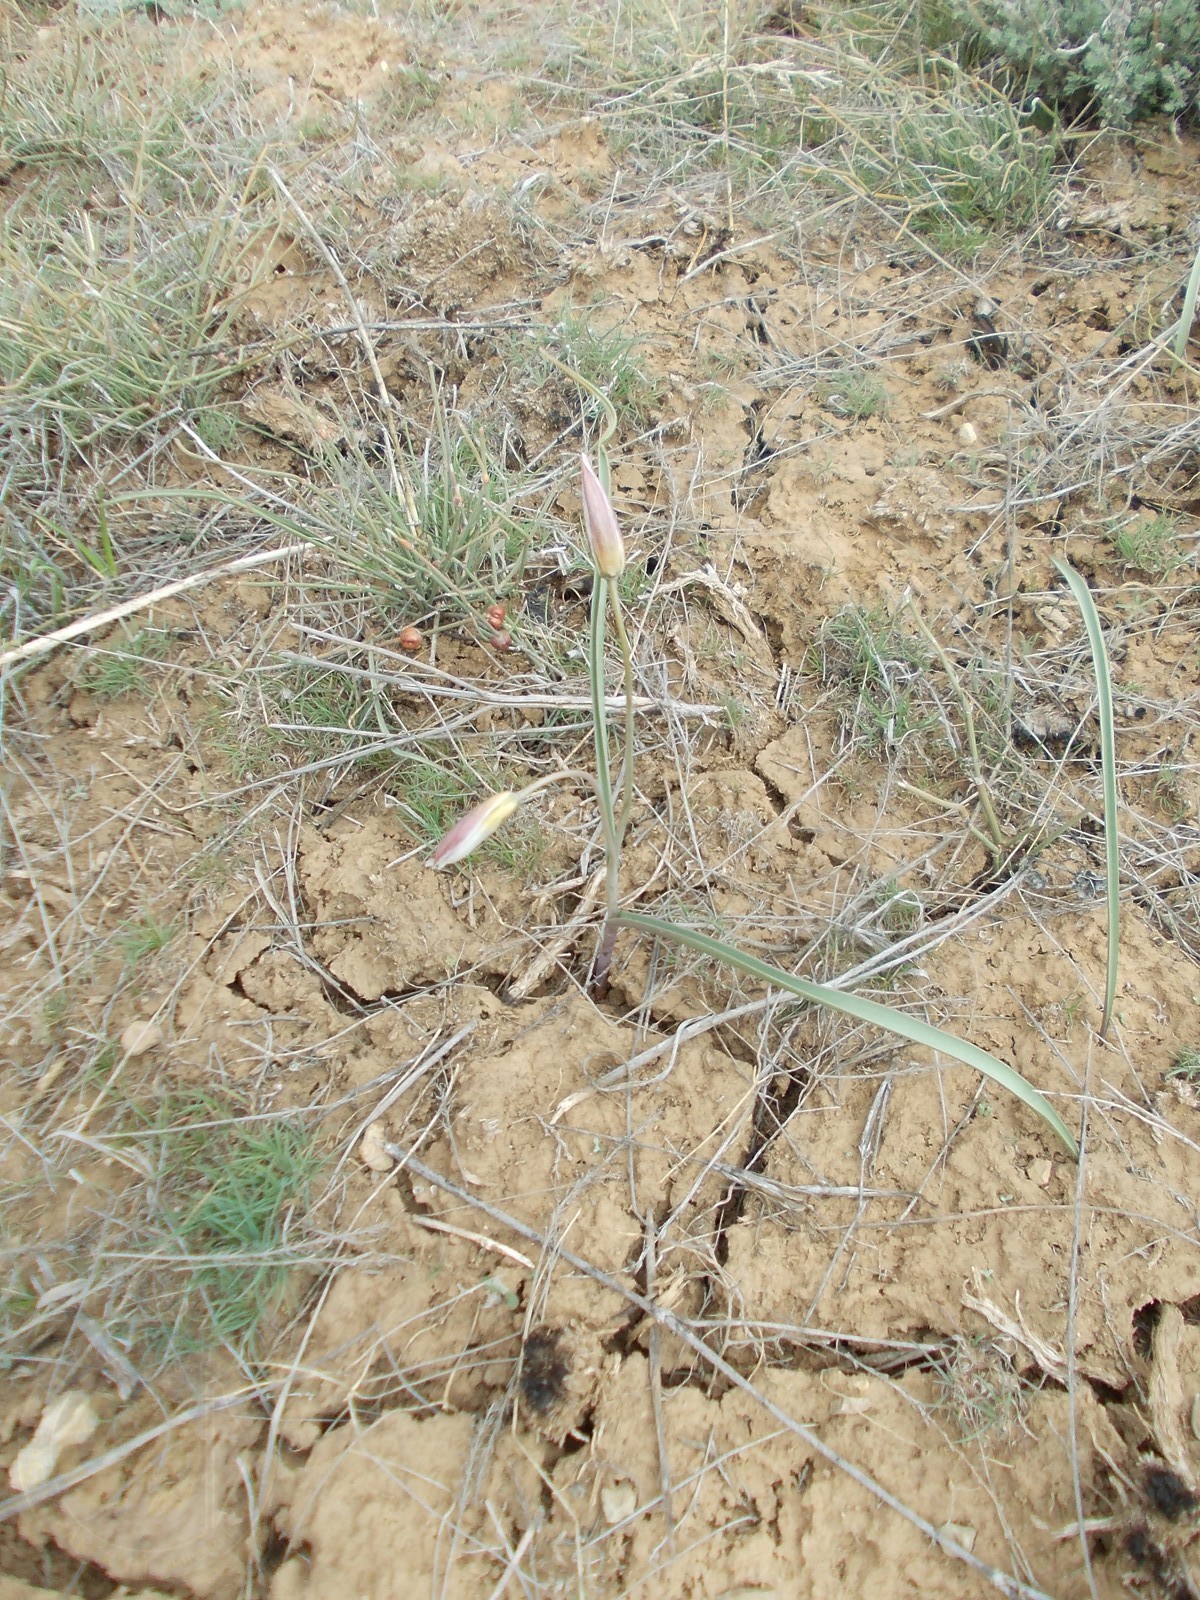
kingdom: Plantae
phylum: Tracheophyta
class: Liliopsida
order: Liliales
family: Liliaceae
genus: Tulipa
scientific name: Tulipa biflora
